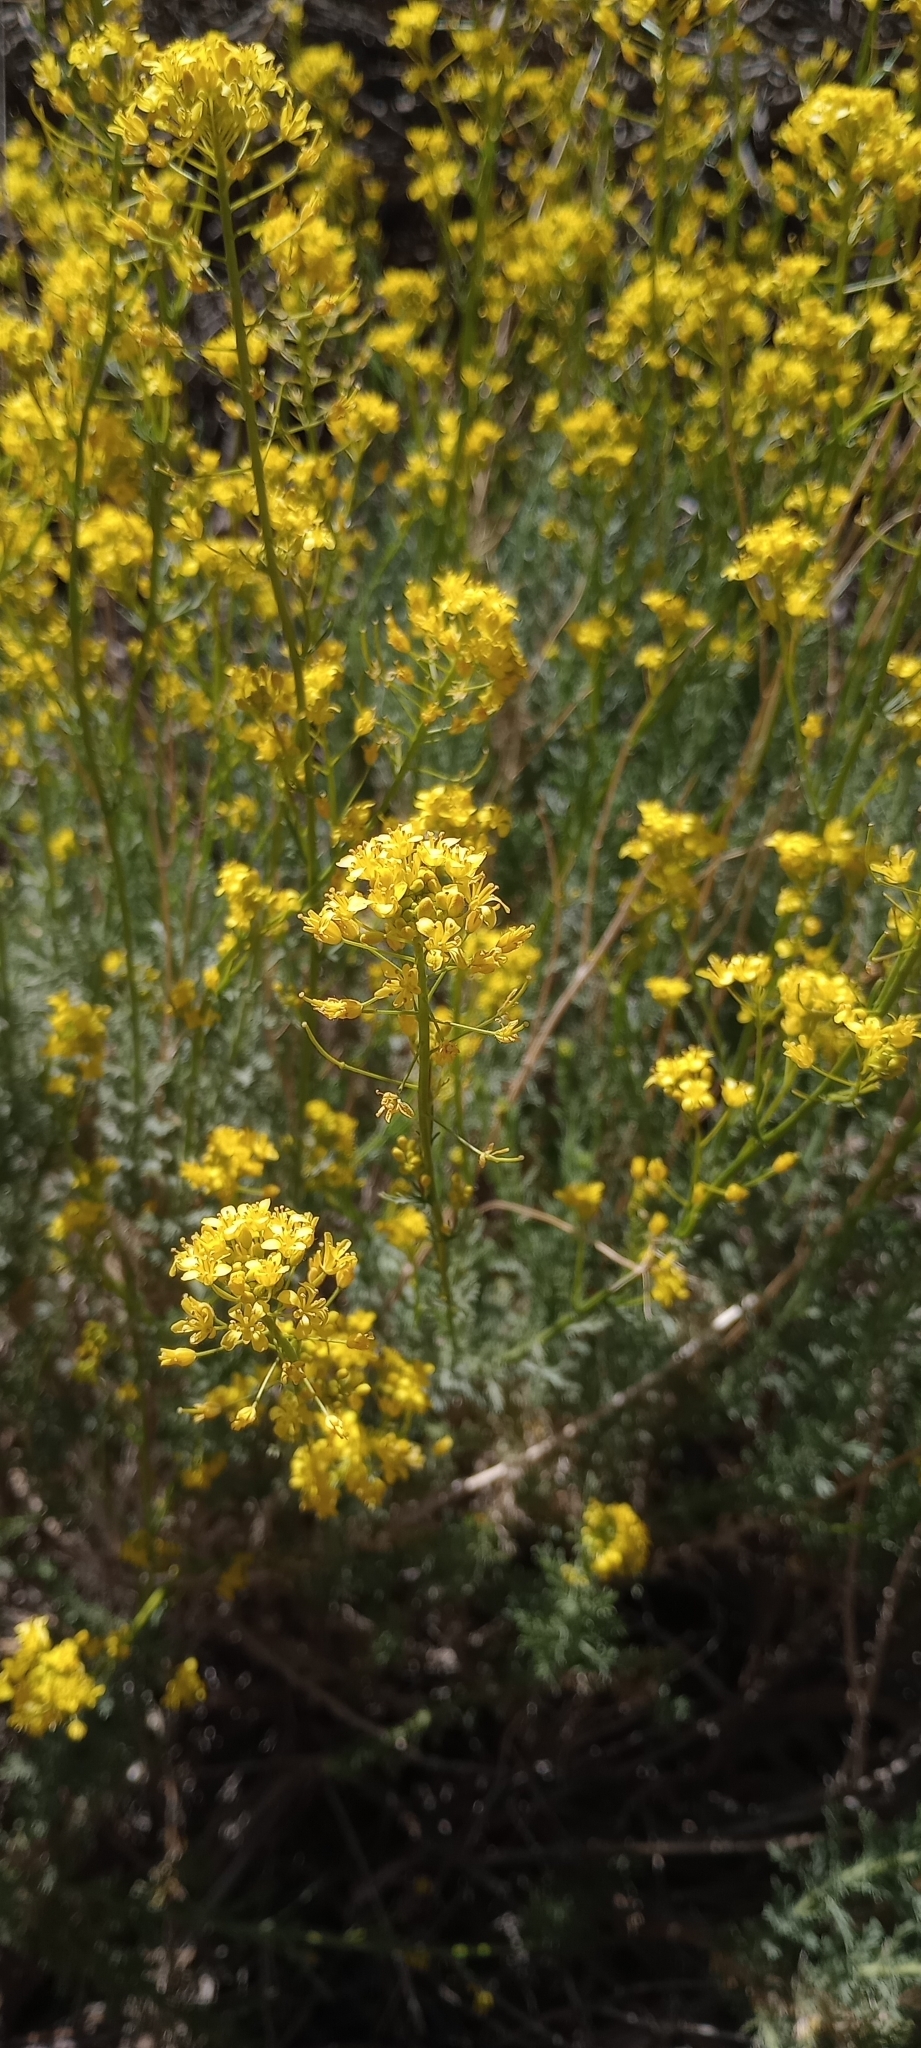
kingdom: Plantae
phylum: Tracheophyta
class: Magnoliopsida
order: Brassicales
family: Brassicaceae
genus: Descurainia
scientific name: Descurainia bourgaeana
